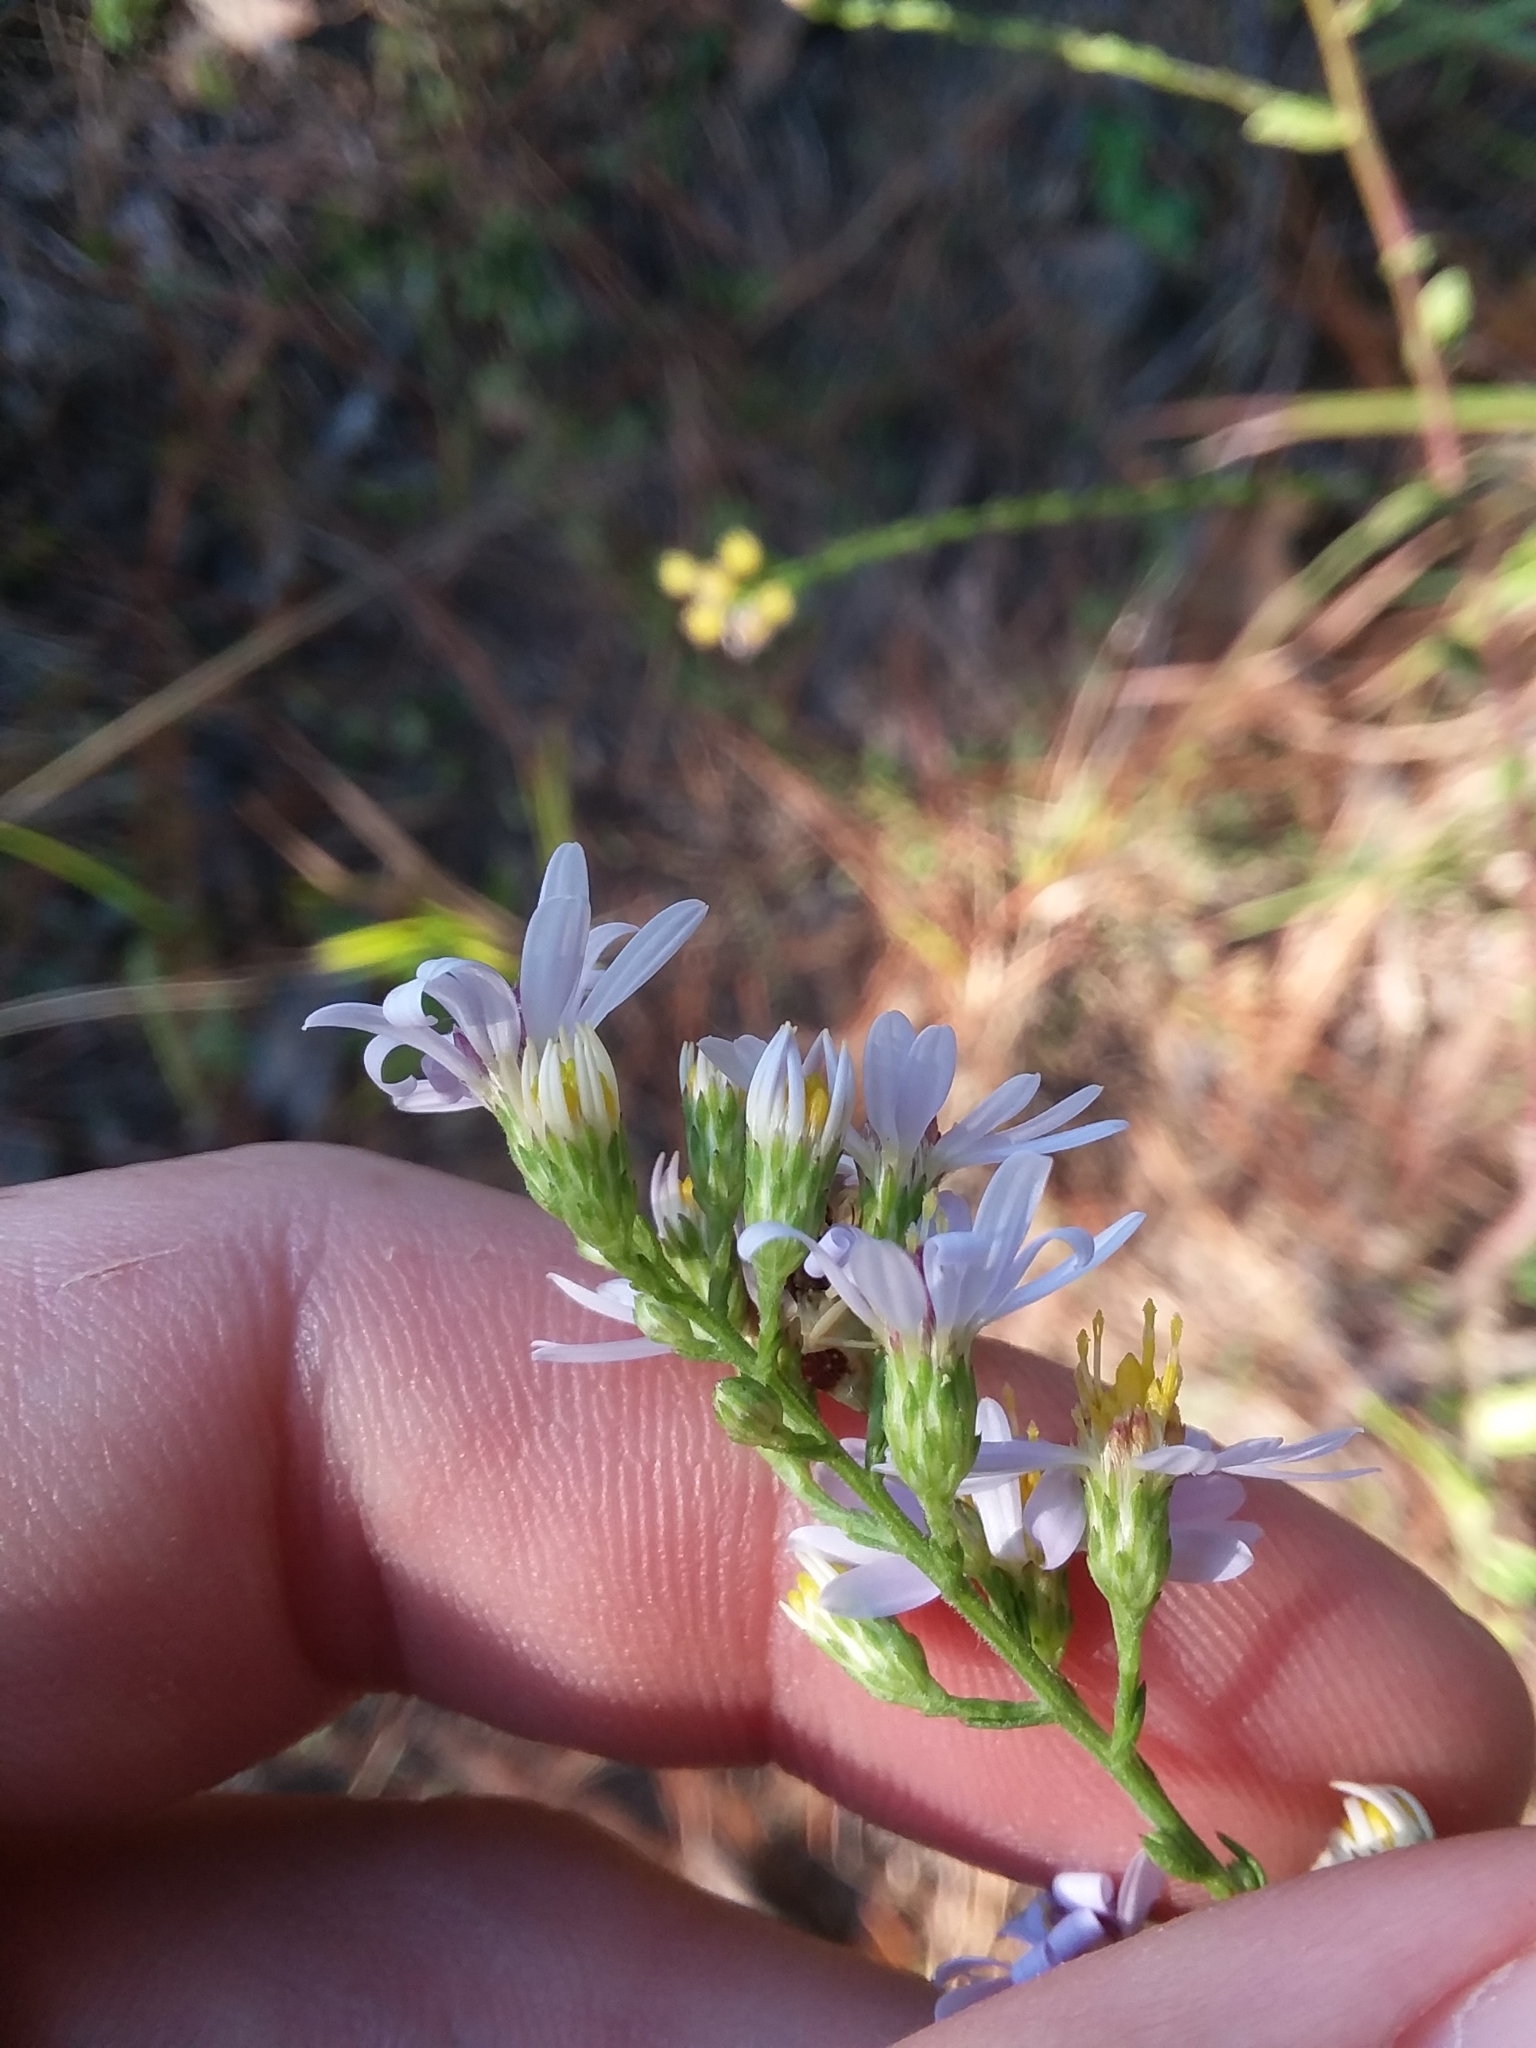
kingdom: Plantae
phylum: Tracheophyta
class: Magnoliopsida
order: Asterales
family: Asteraceae
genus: Symphyotrichum
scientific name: Symphyotrichum undulatum
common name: Clasping heart-leaf aster
